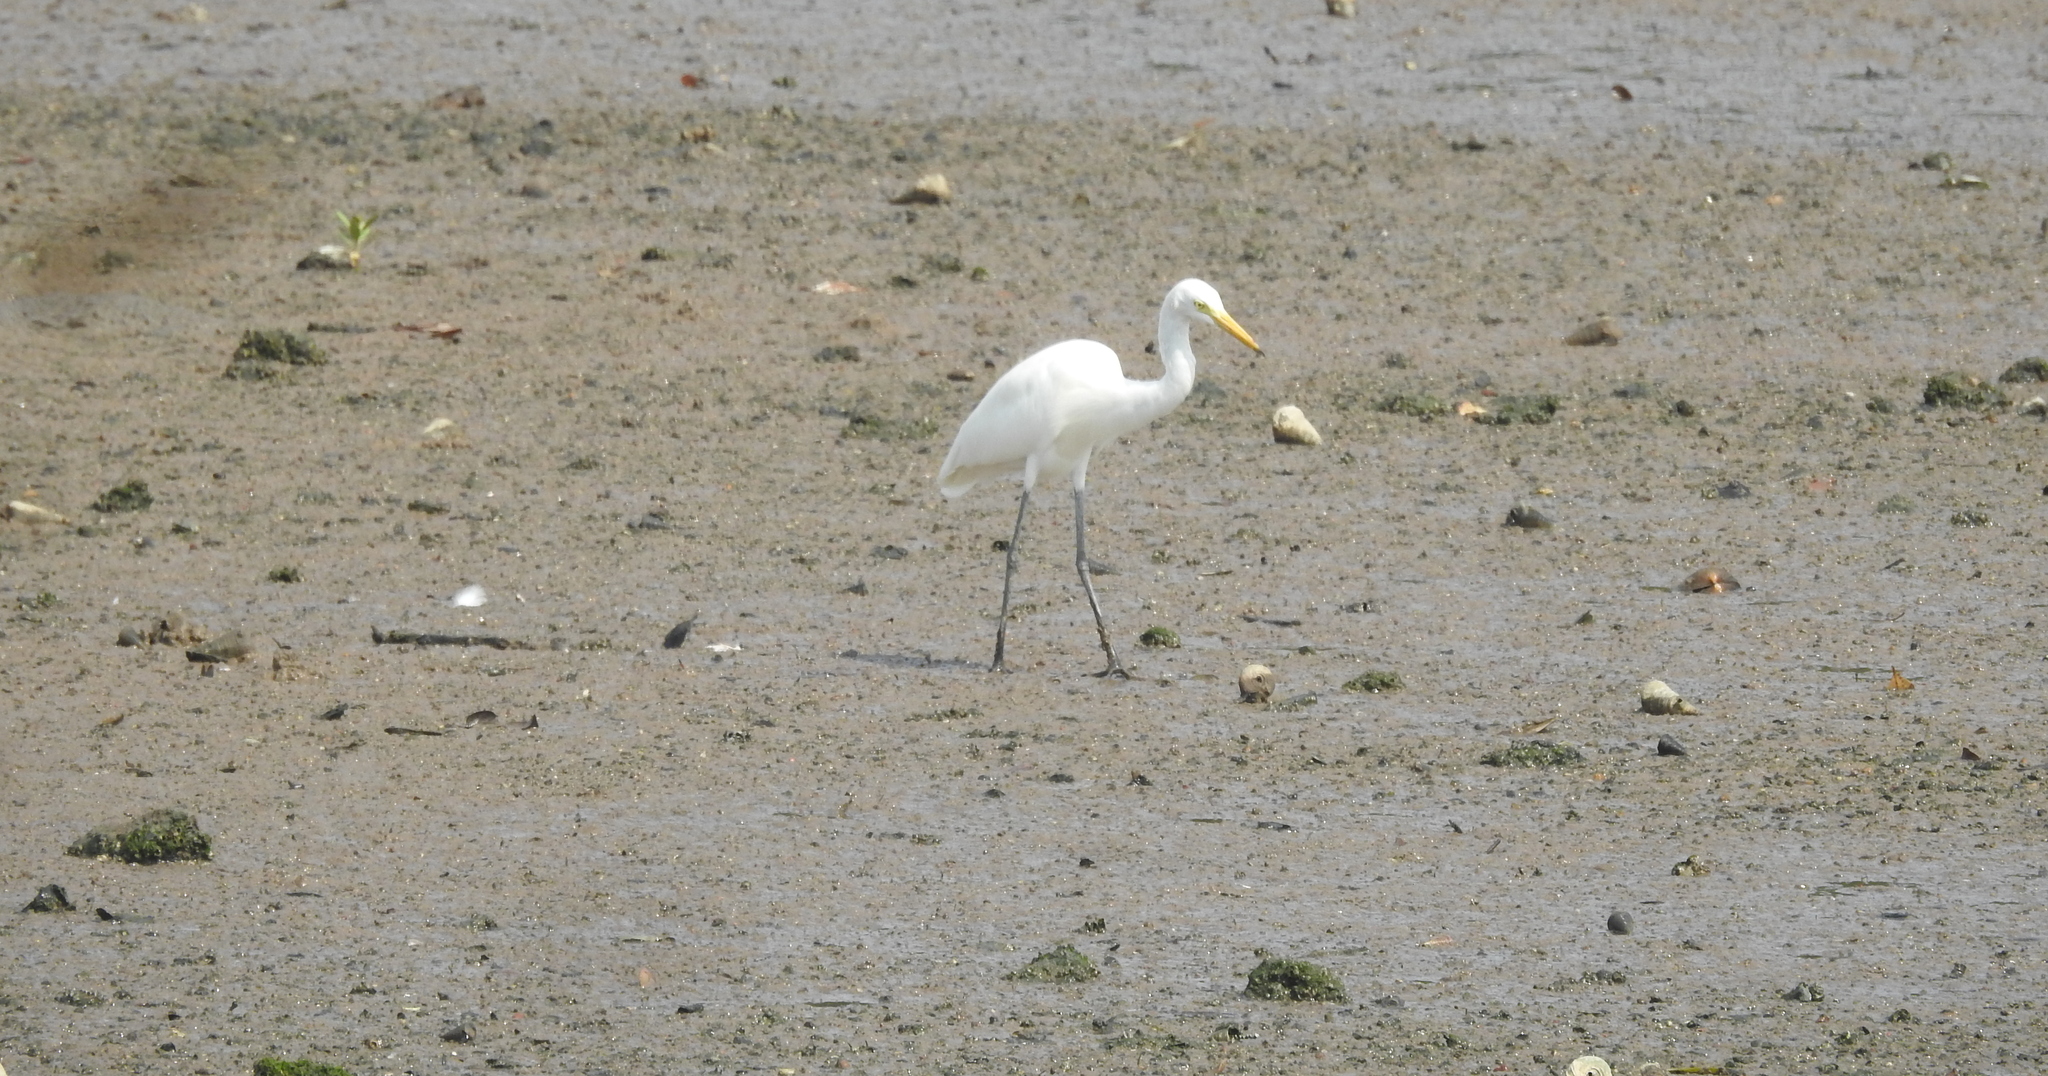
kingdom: Animalia
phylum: Chordata
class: Aves
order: Pelecaniformes
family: Ardeidae
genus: Egretta
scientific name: Egretta intermedia
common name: Intermediate egret
